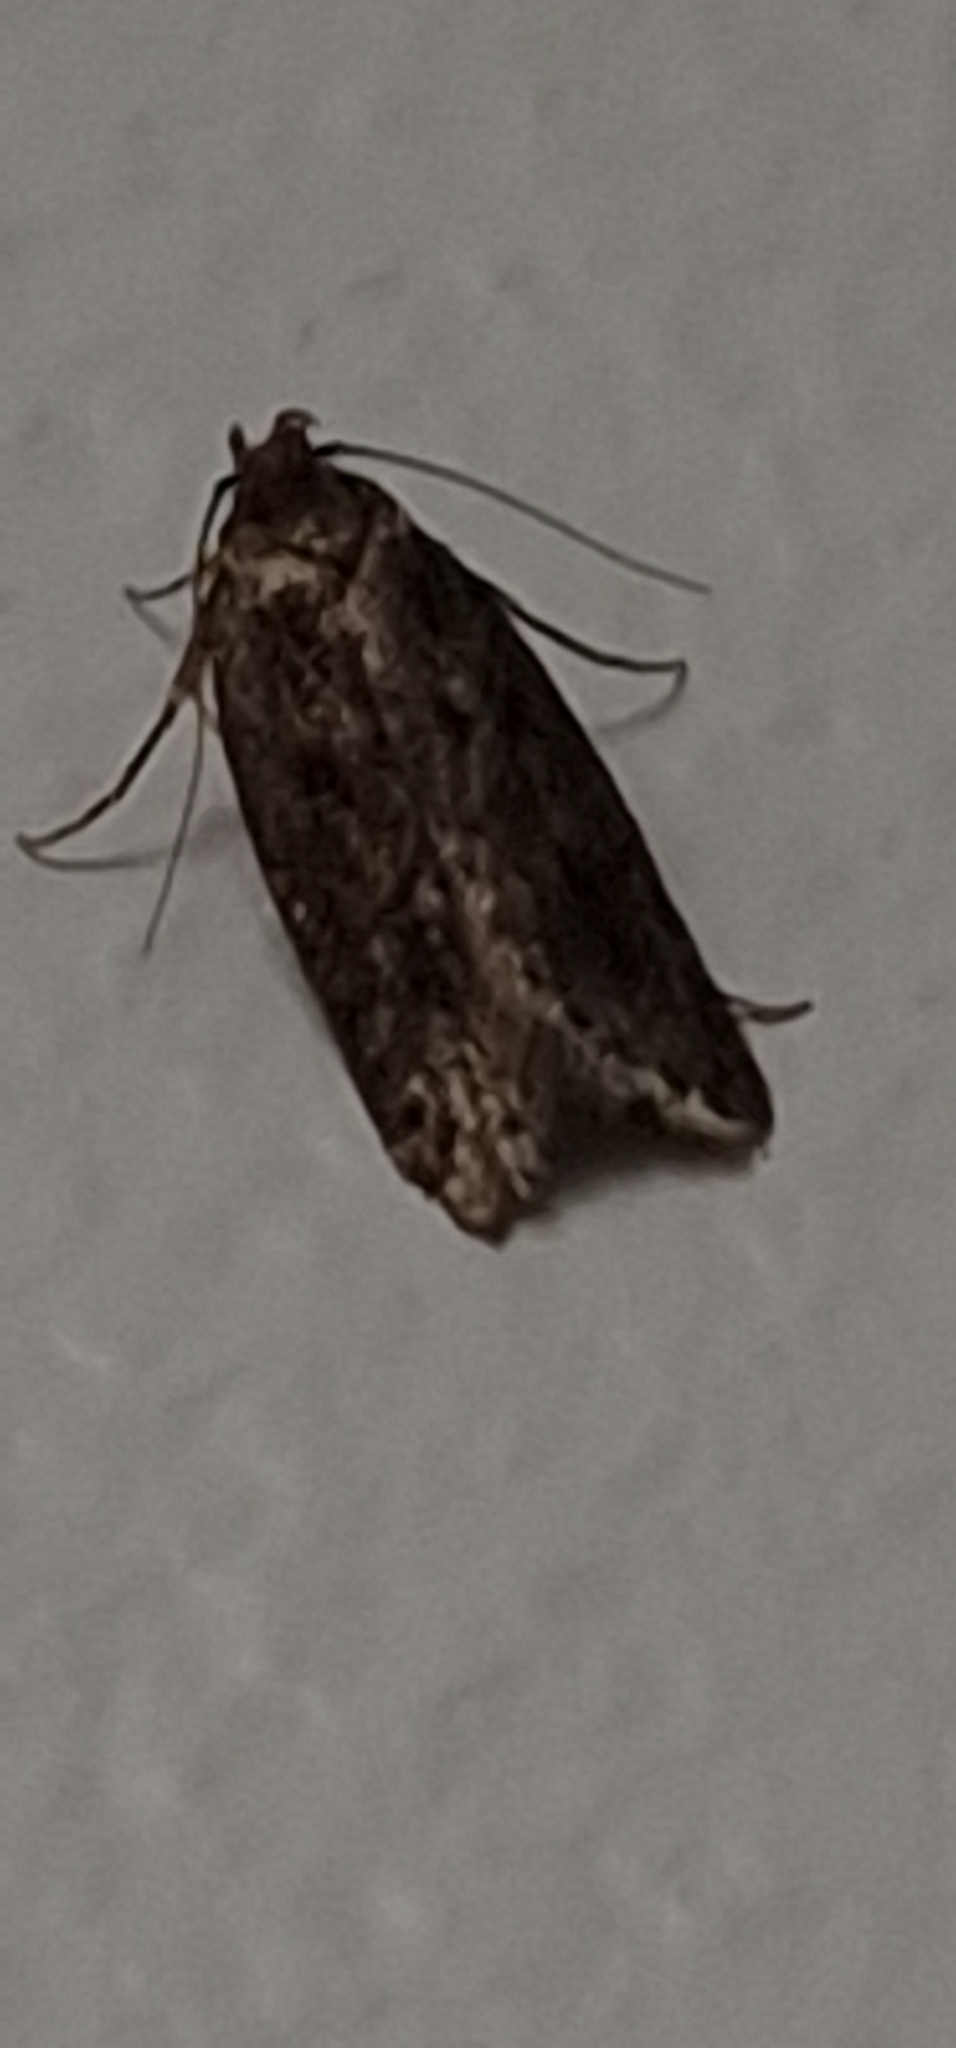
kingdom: Animalia
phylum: Arthropoda
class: Insecta
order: Lepidoptera
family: Oecophoridae
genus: Hofmannophila
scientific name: Hofmannophila pseudospretella
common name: Brown house moth
